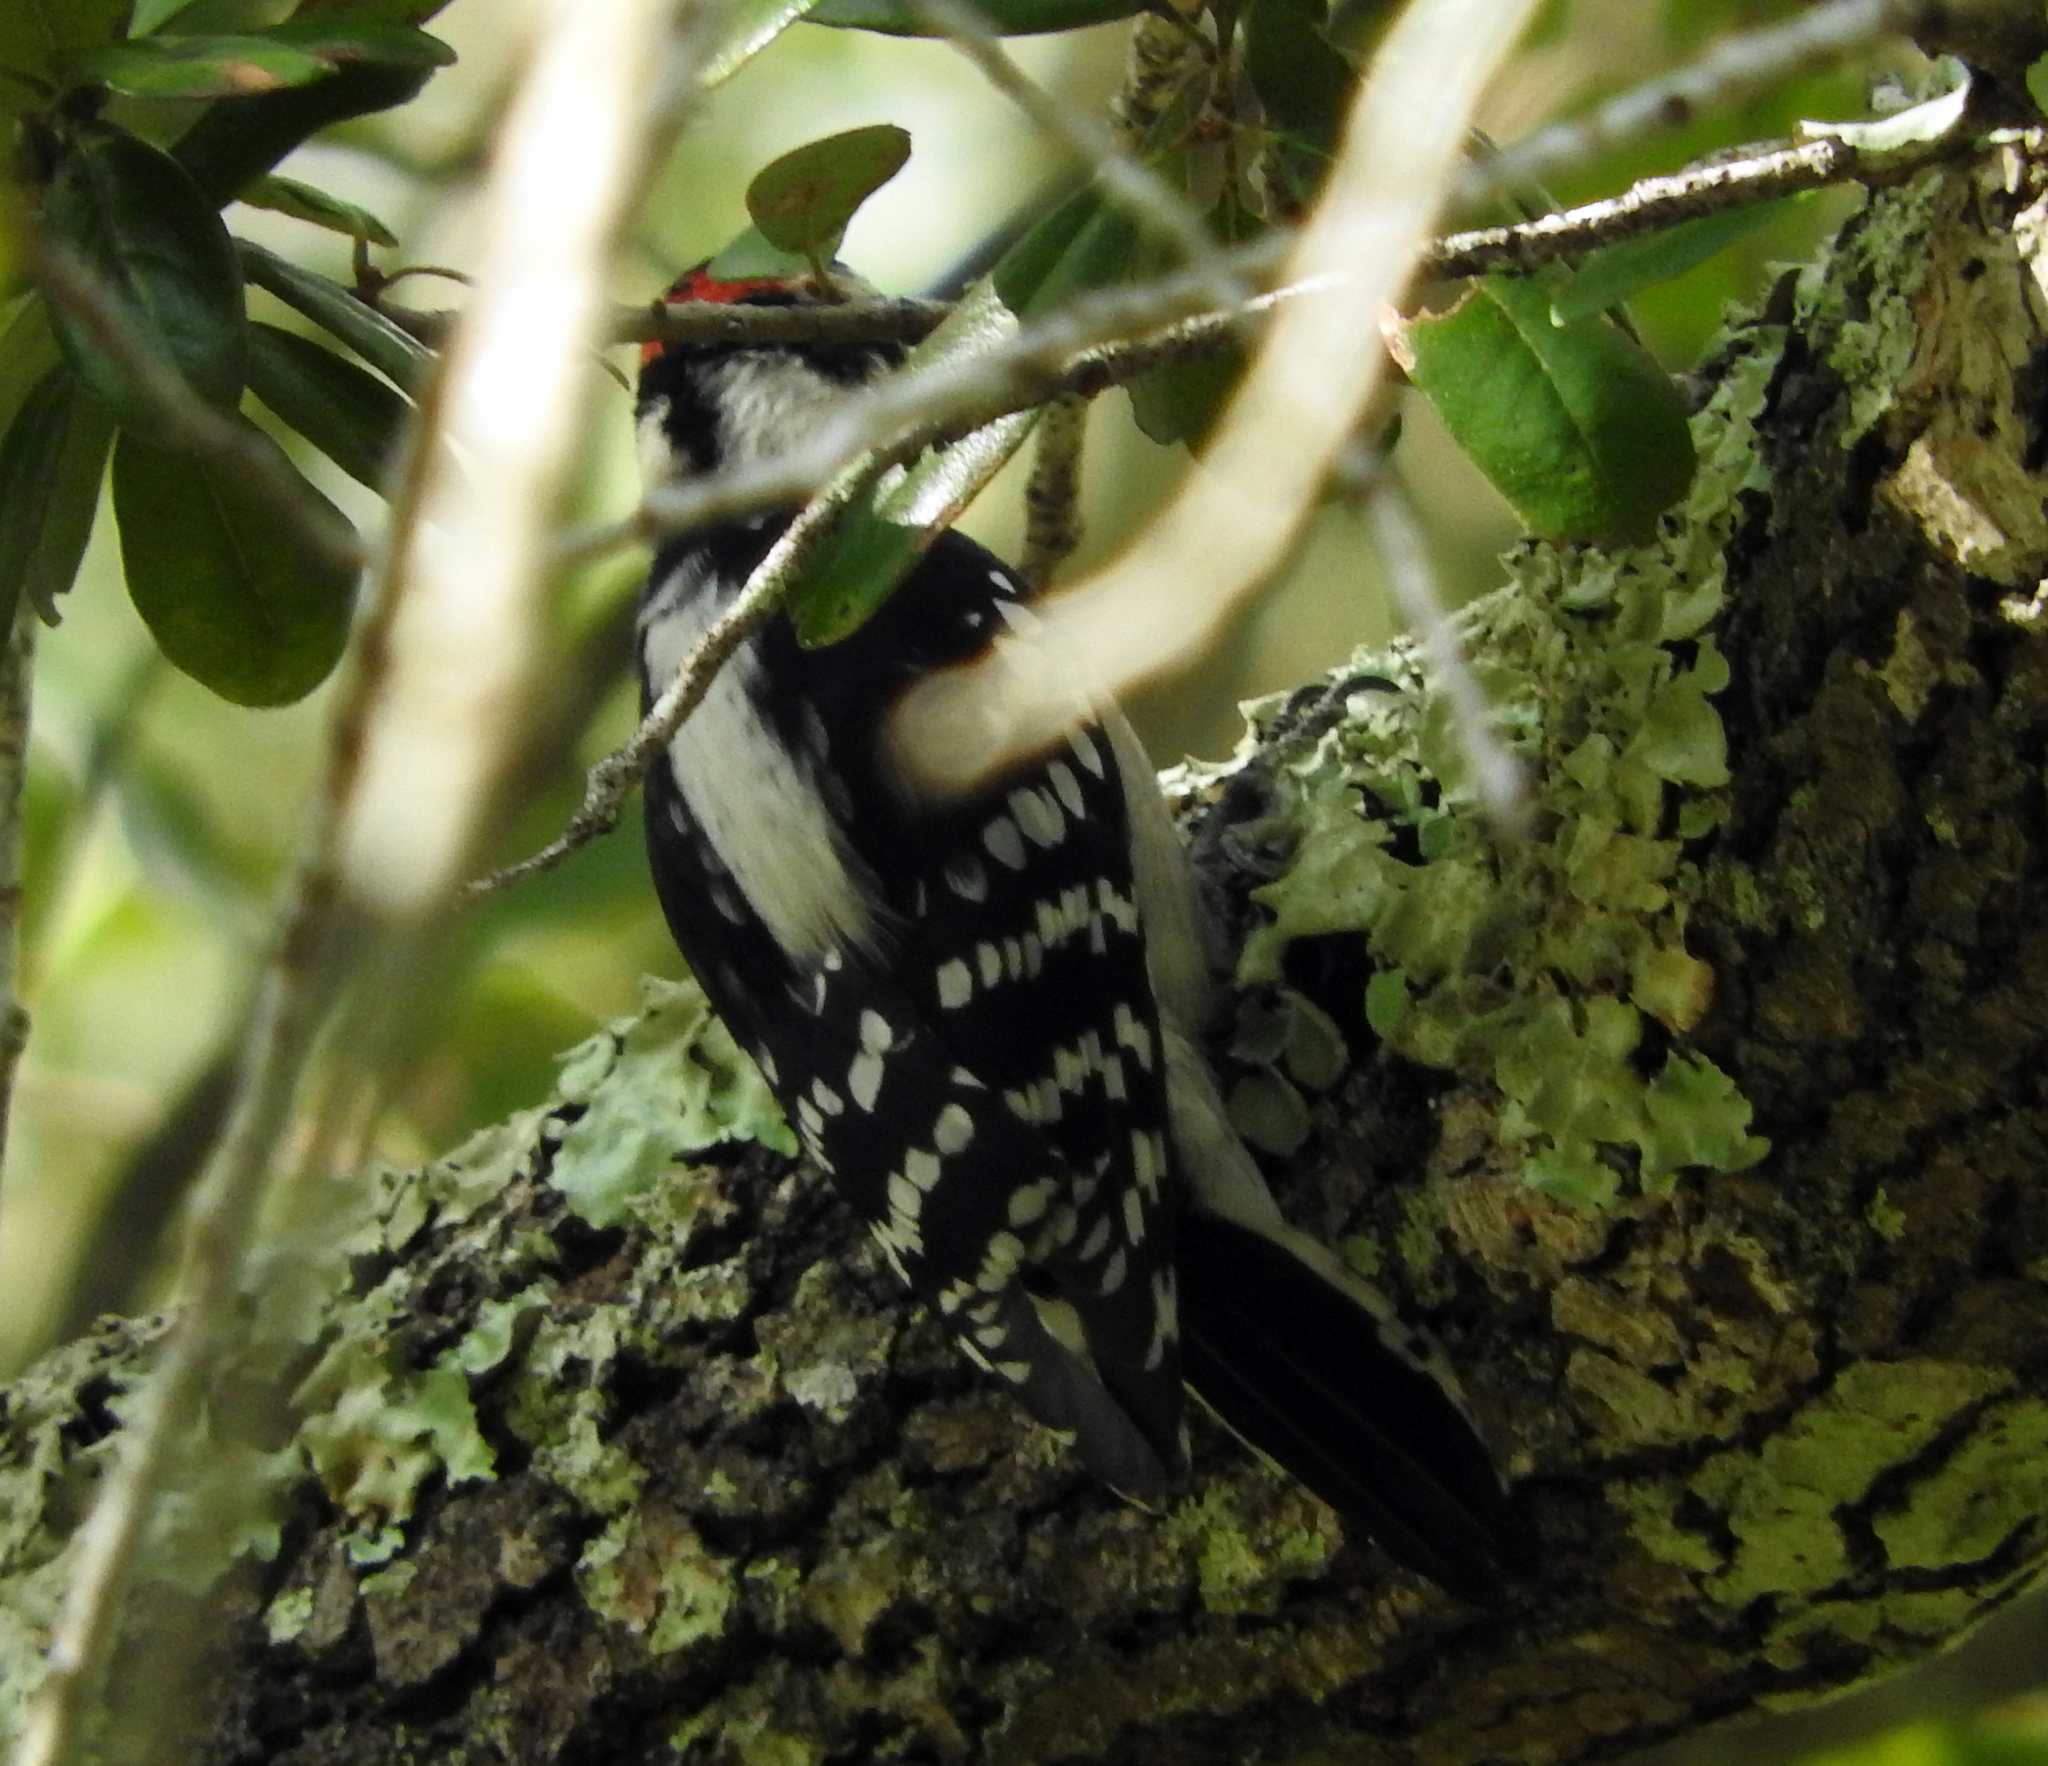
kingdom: Animalia
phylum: Chordata
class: Aves
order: Piciformes
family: Picidae
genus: Dryobates
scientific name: Dryobates pubescens
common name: Downy woodpecker
